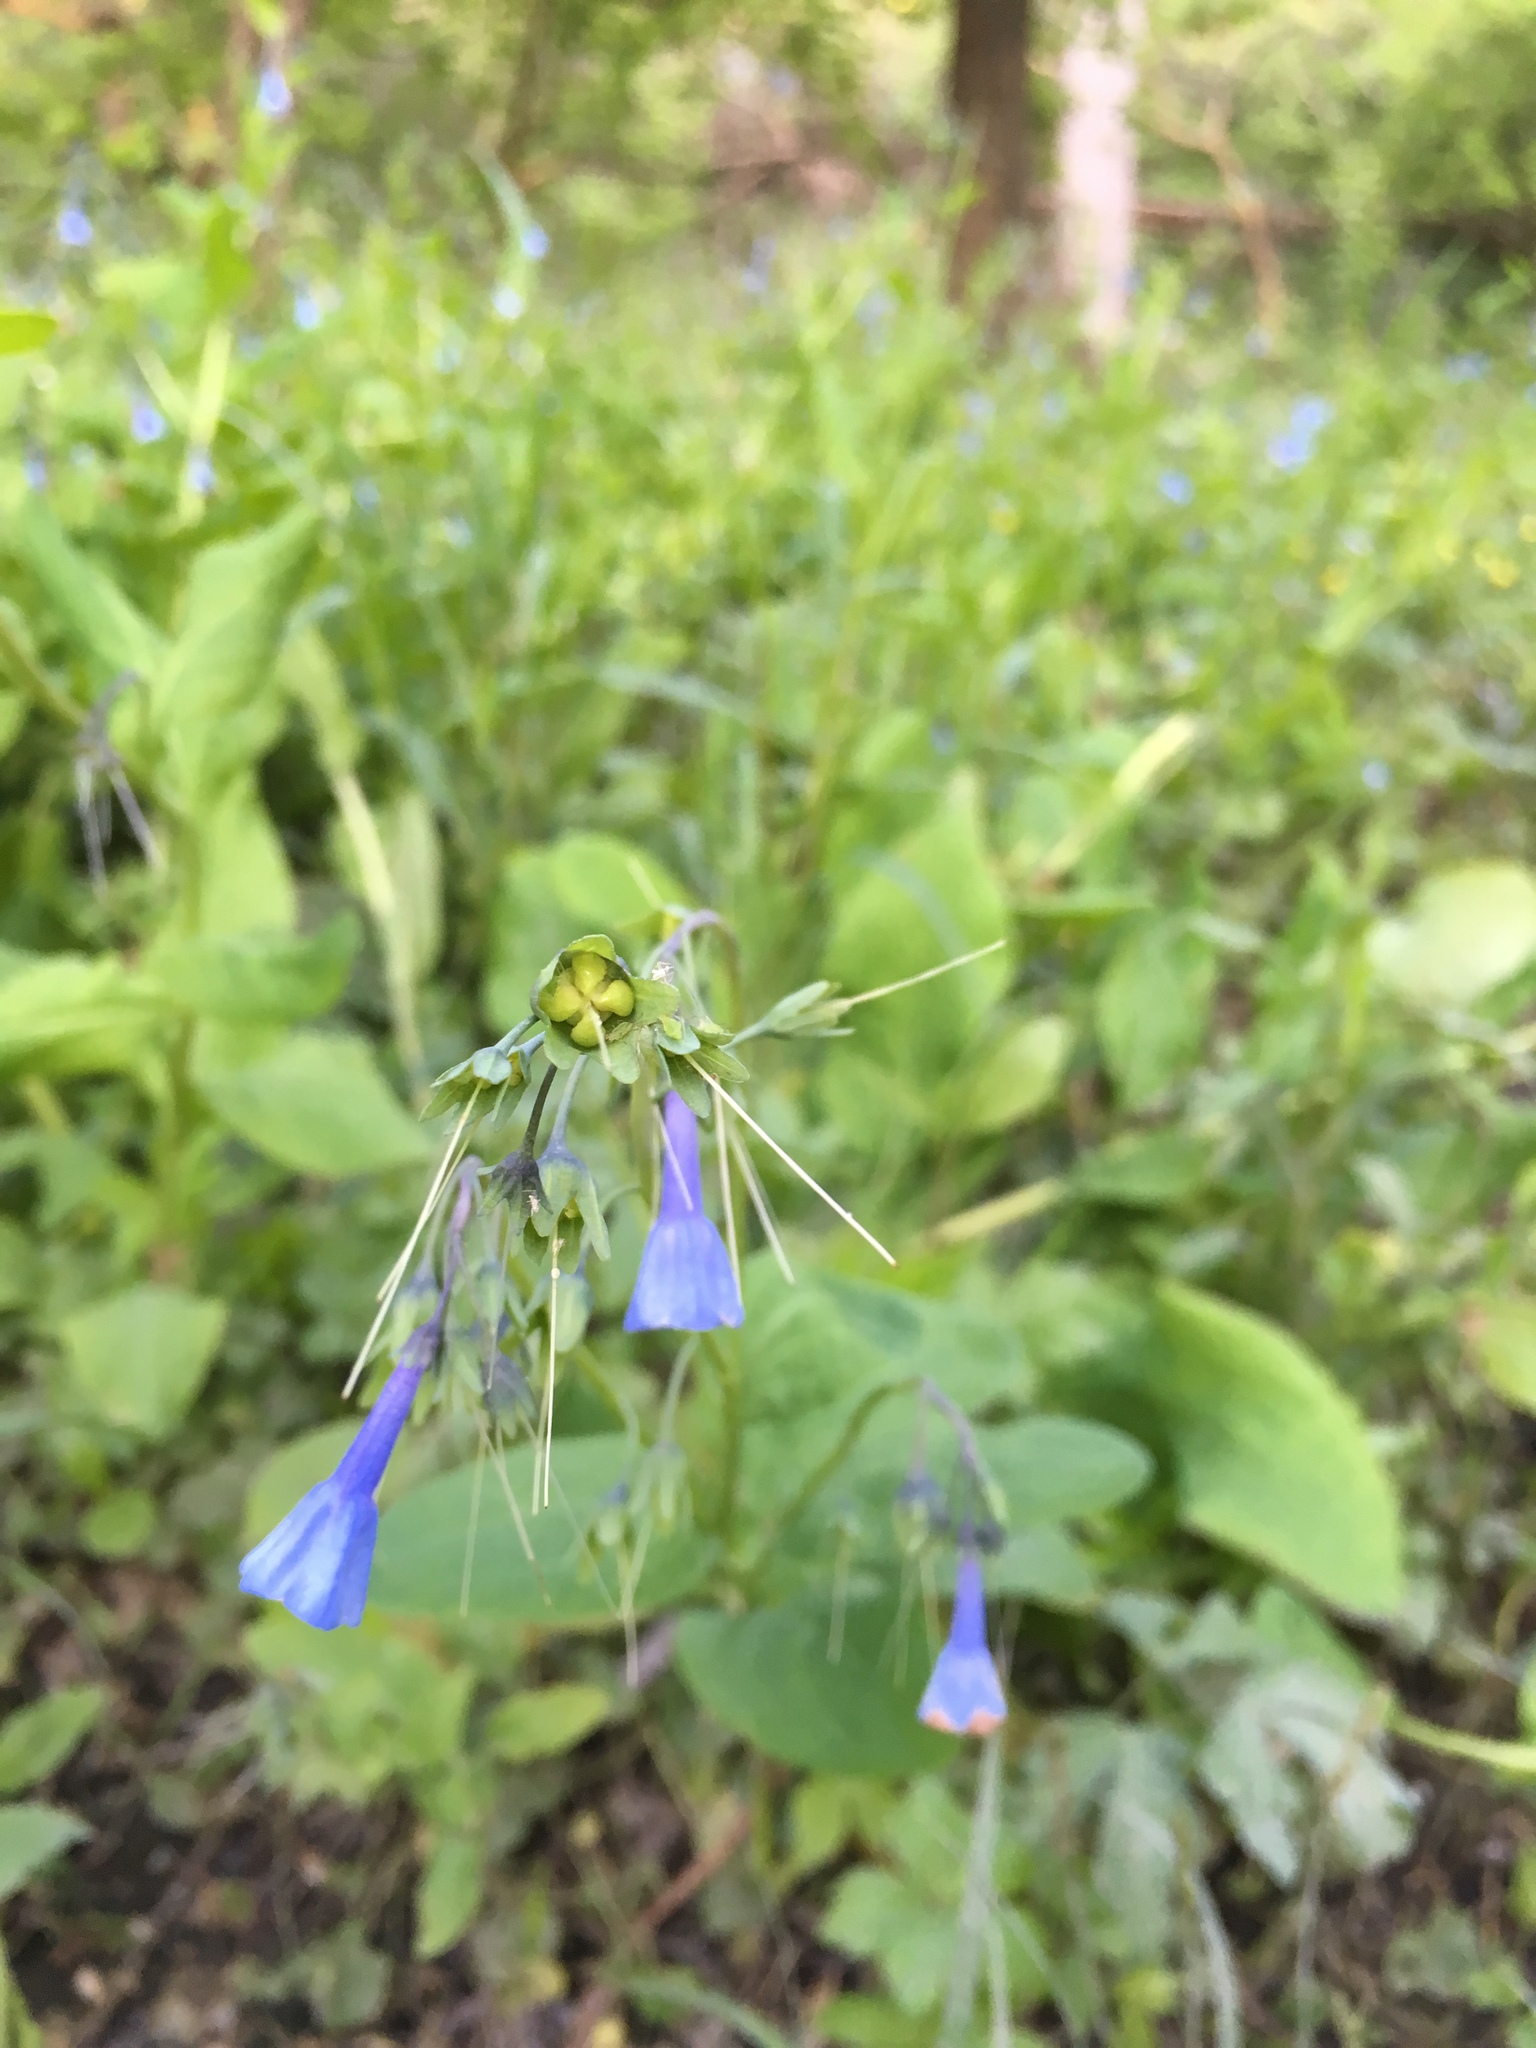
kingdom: Plantae
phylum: Tracheophyta
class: Magnoliopsida
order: Boraginales
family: Boraginaceae
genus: Mertensia
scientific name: Mertensia virginica
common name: Virginia bluebells
